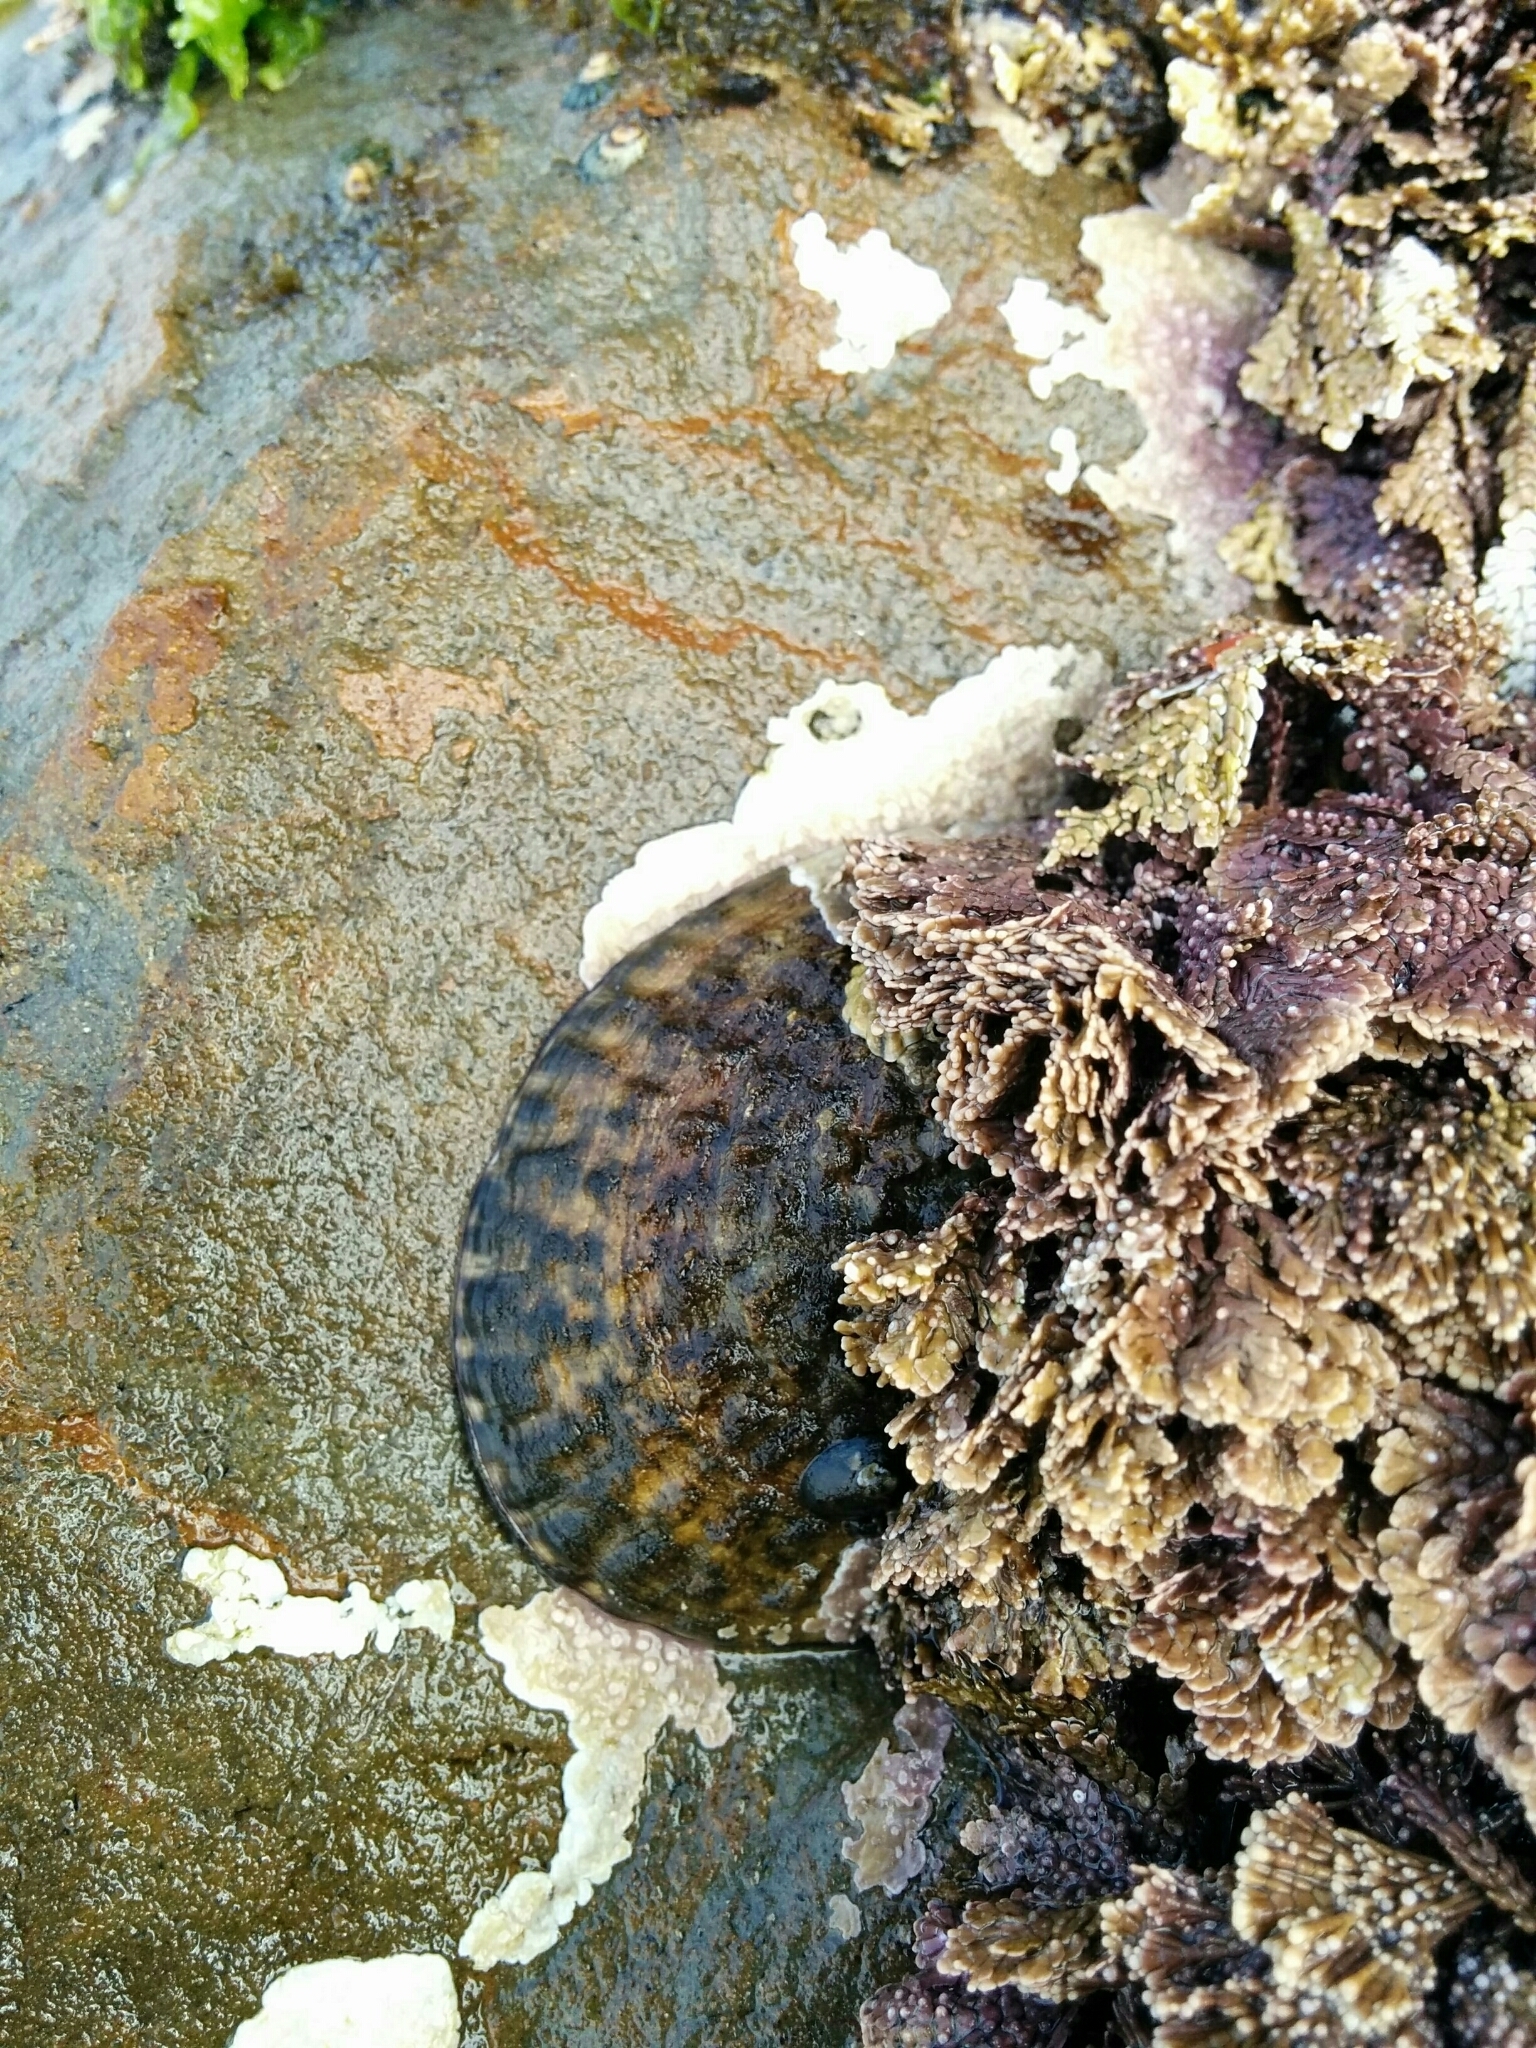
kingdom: Animalia
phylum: Mollusca
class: Gastropoda
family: Lottiidae
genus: Lottia
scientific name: Lottia gigantea
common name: Owl limpet
